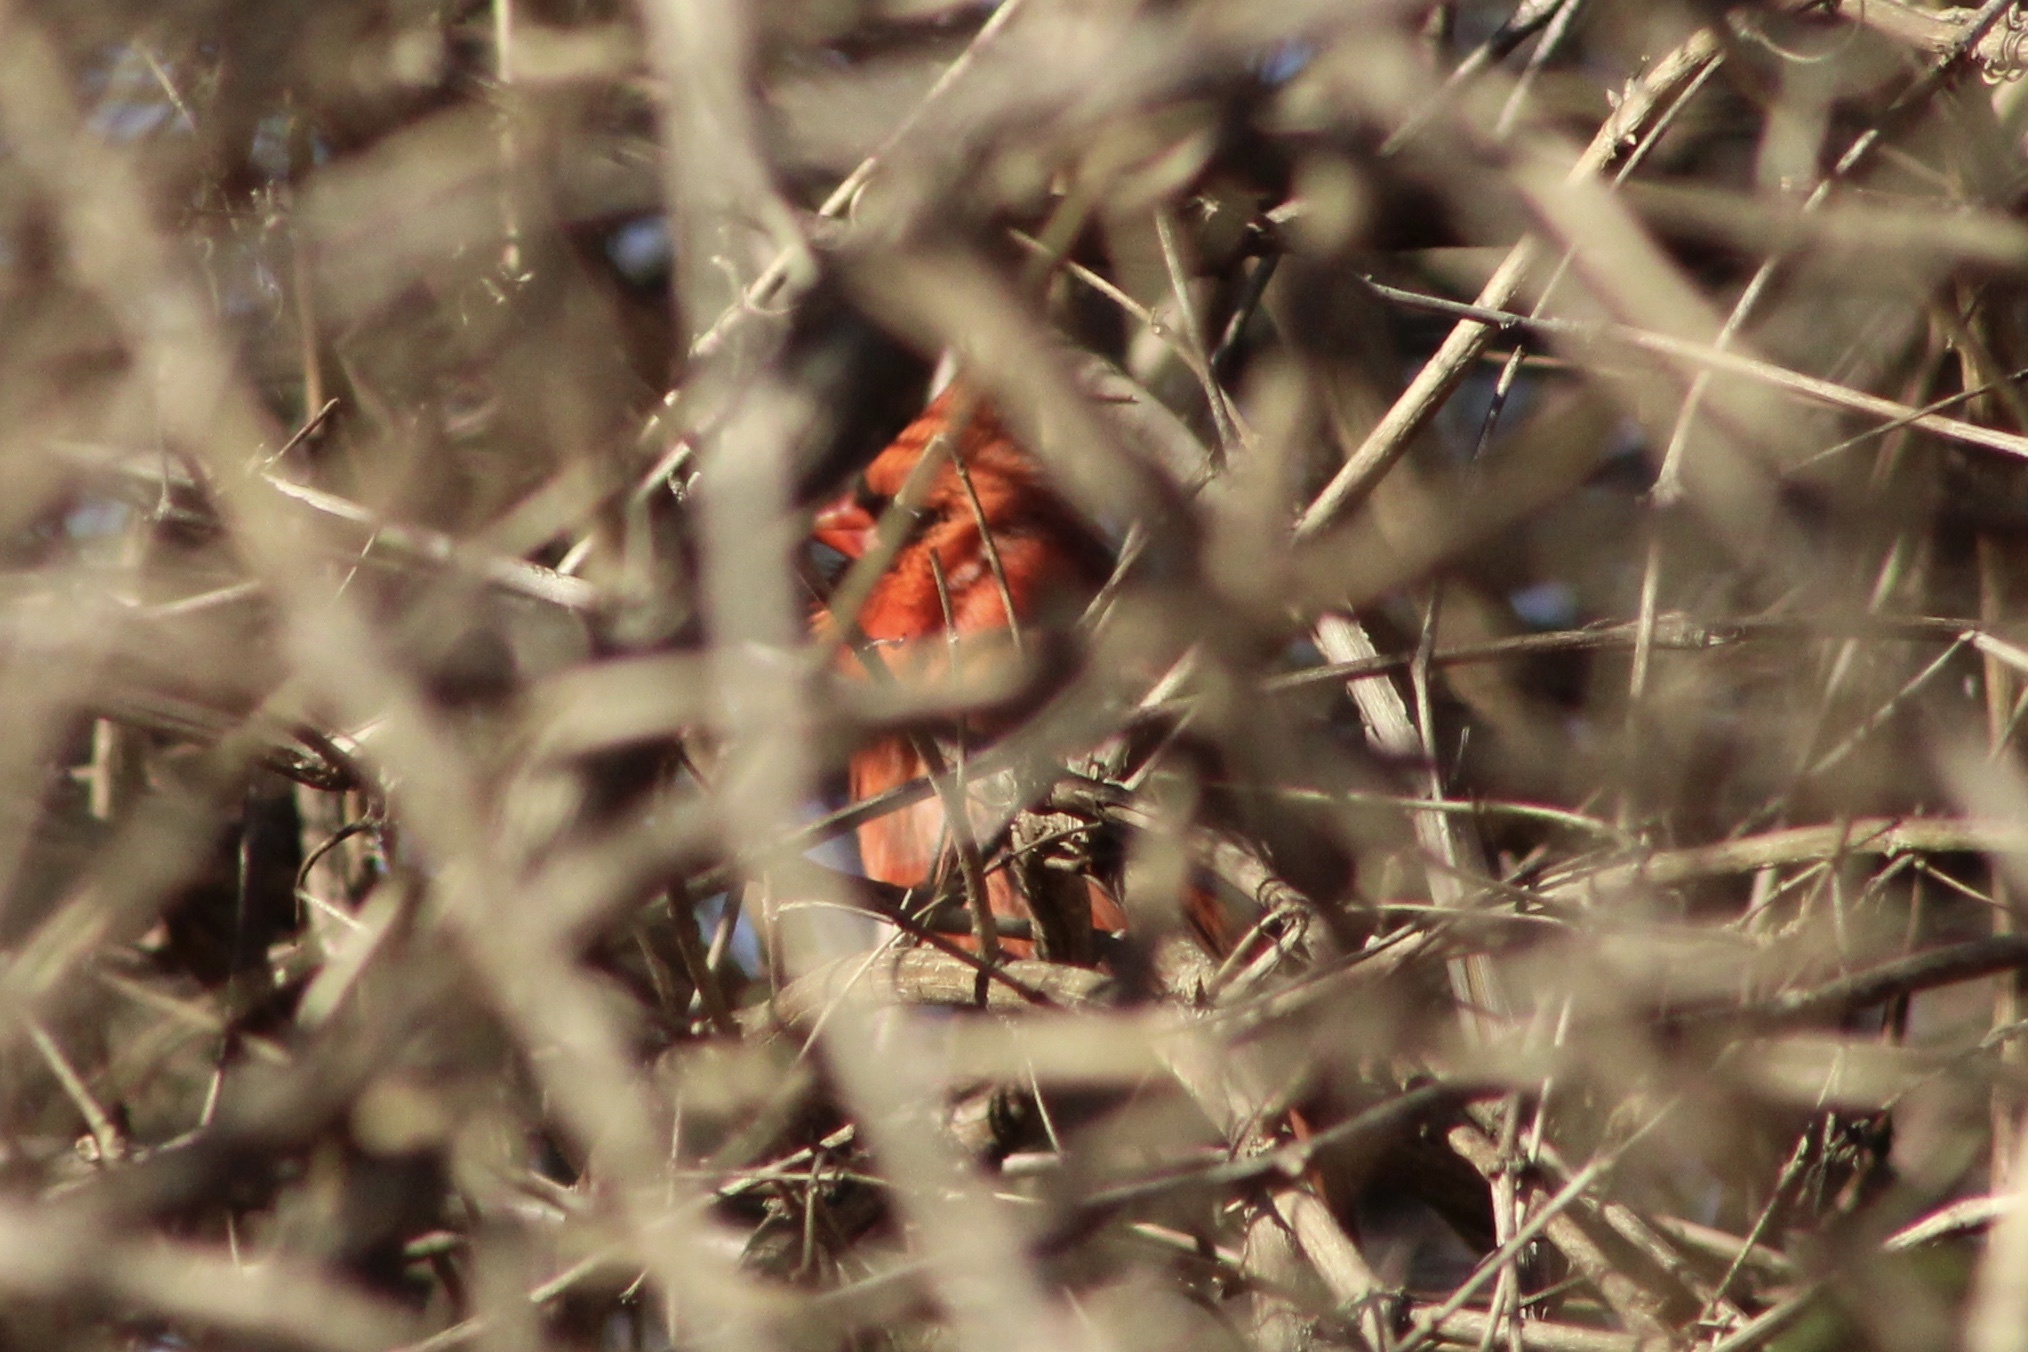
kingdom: Animalia
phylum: Chordata
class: Aves
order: Passeriformes
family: Cardinalidae
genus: Cardinalis
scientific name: Cardinalis cardinalis
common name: Northern cardinal
